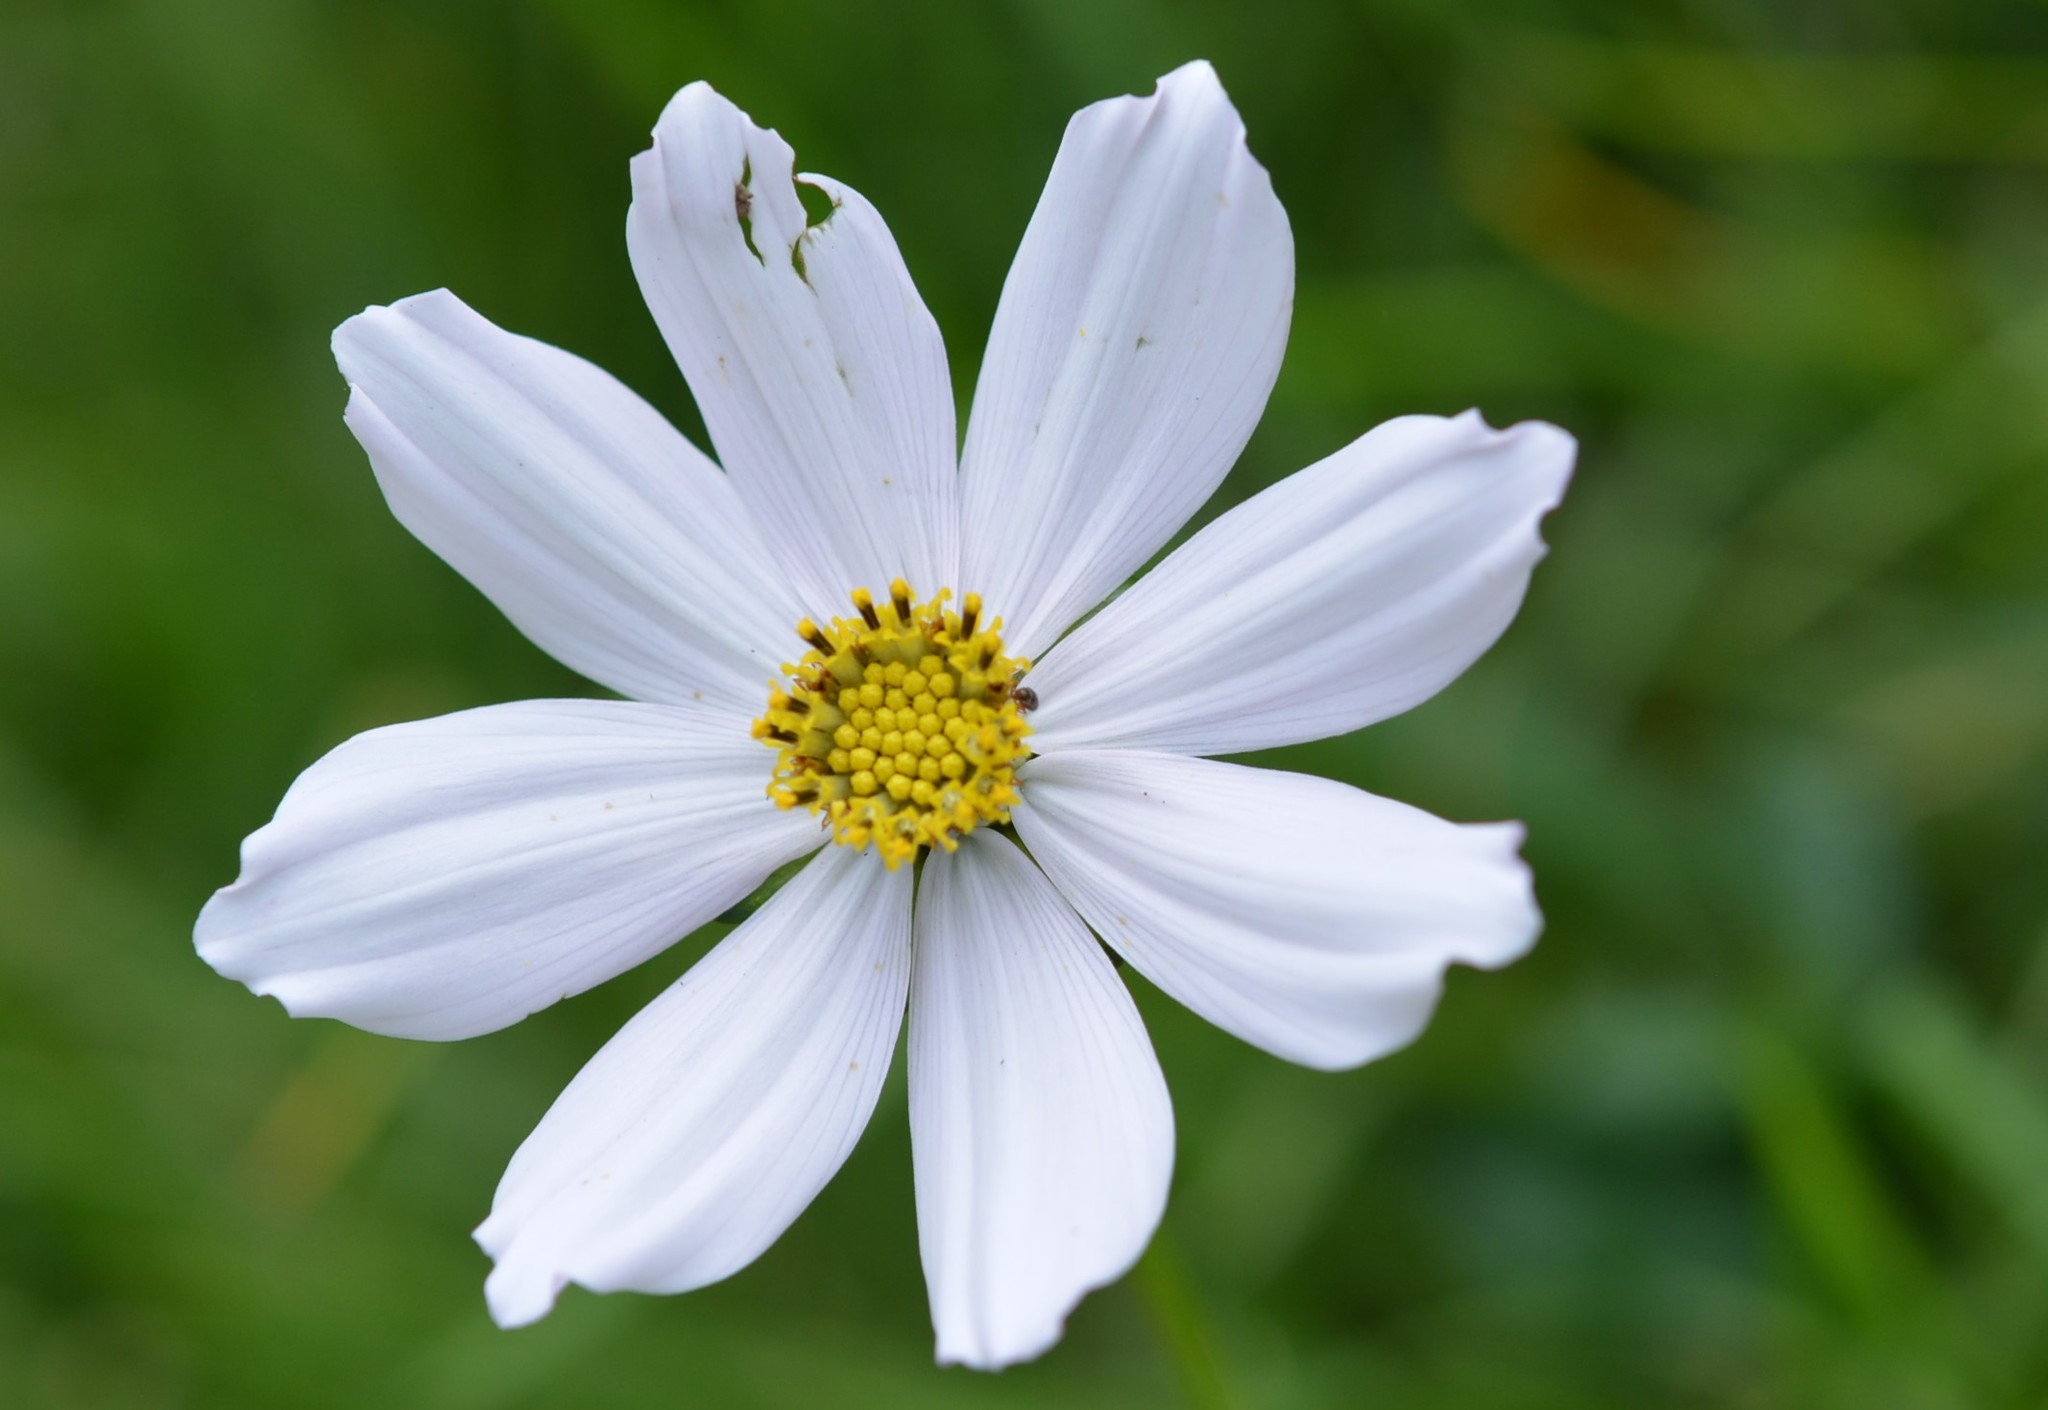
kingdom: Plantae
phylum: Tracheophyta
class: Magnoliopsida
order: Asterales
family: Asteraceae
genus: Cosmos
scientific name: Cosmos diversifolius
